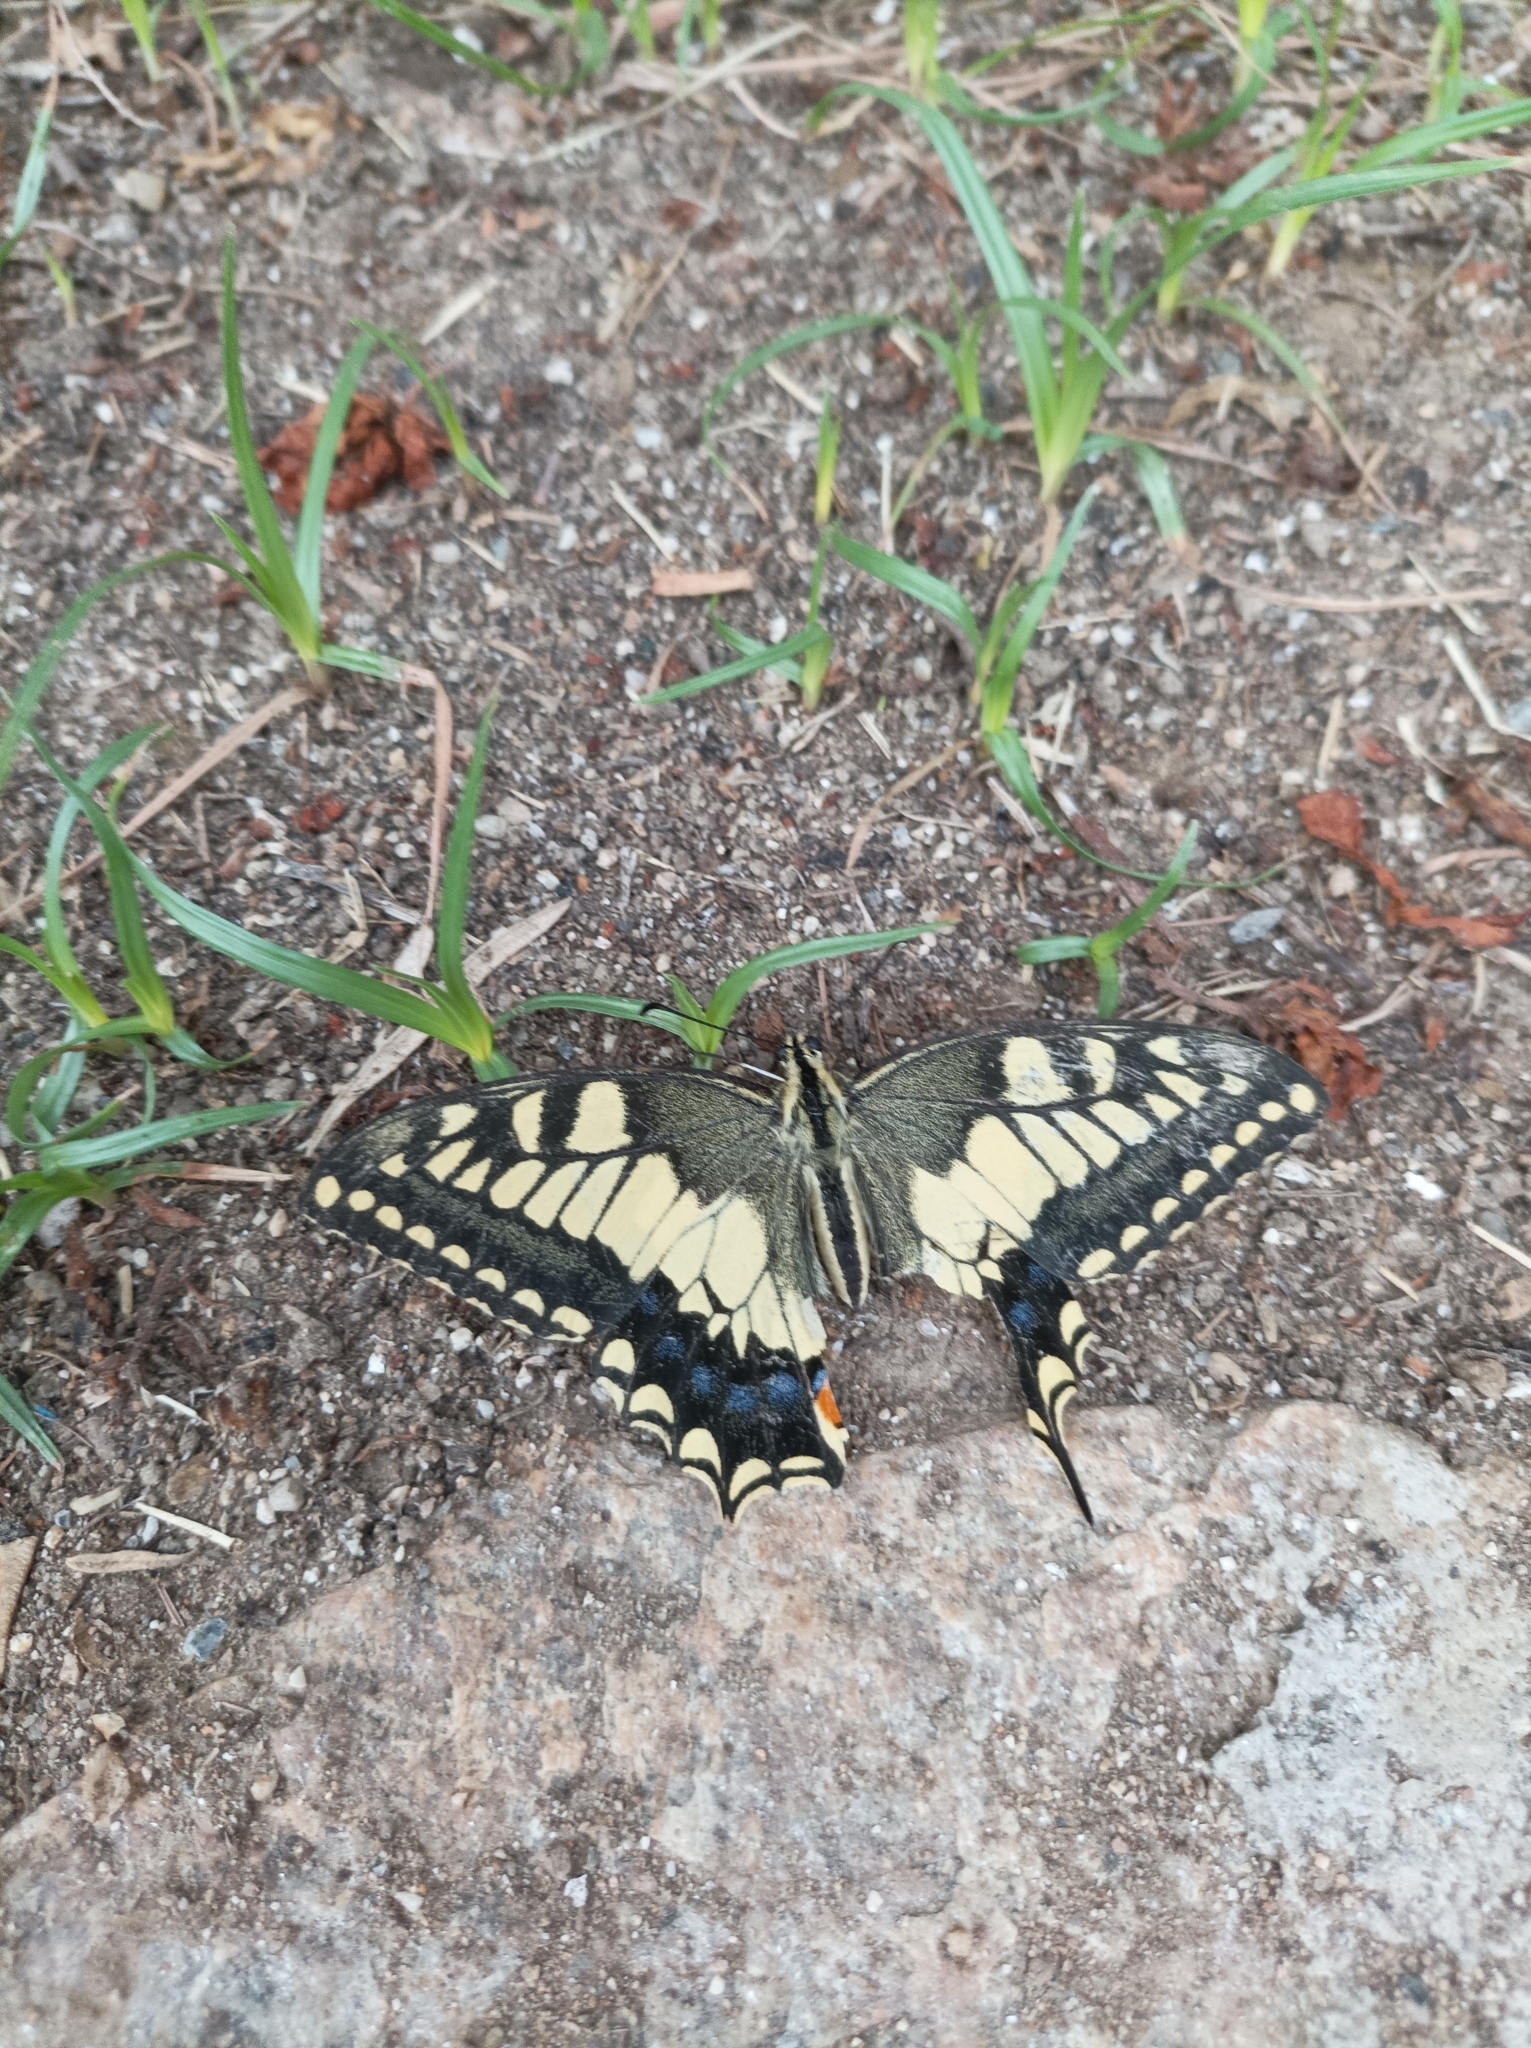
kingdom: Animalia
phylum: Arthropoda
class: Insecta
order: Lepidoptera
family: Papilionidae
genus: Papilio
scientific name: Papilio machaon
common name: Swallowtail
